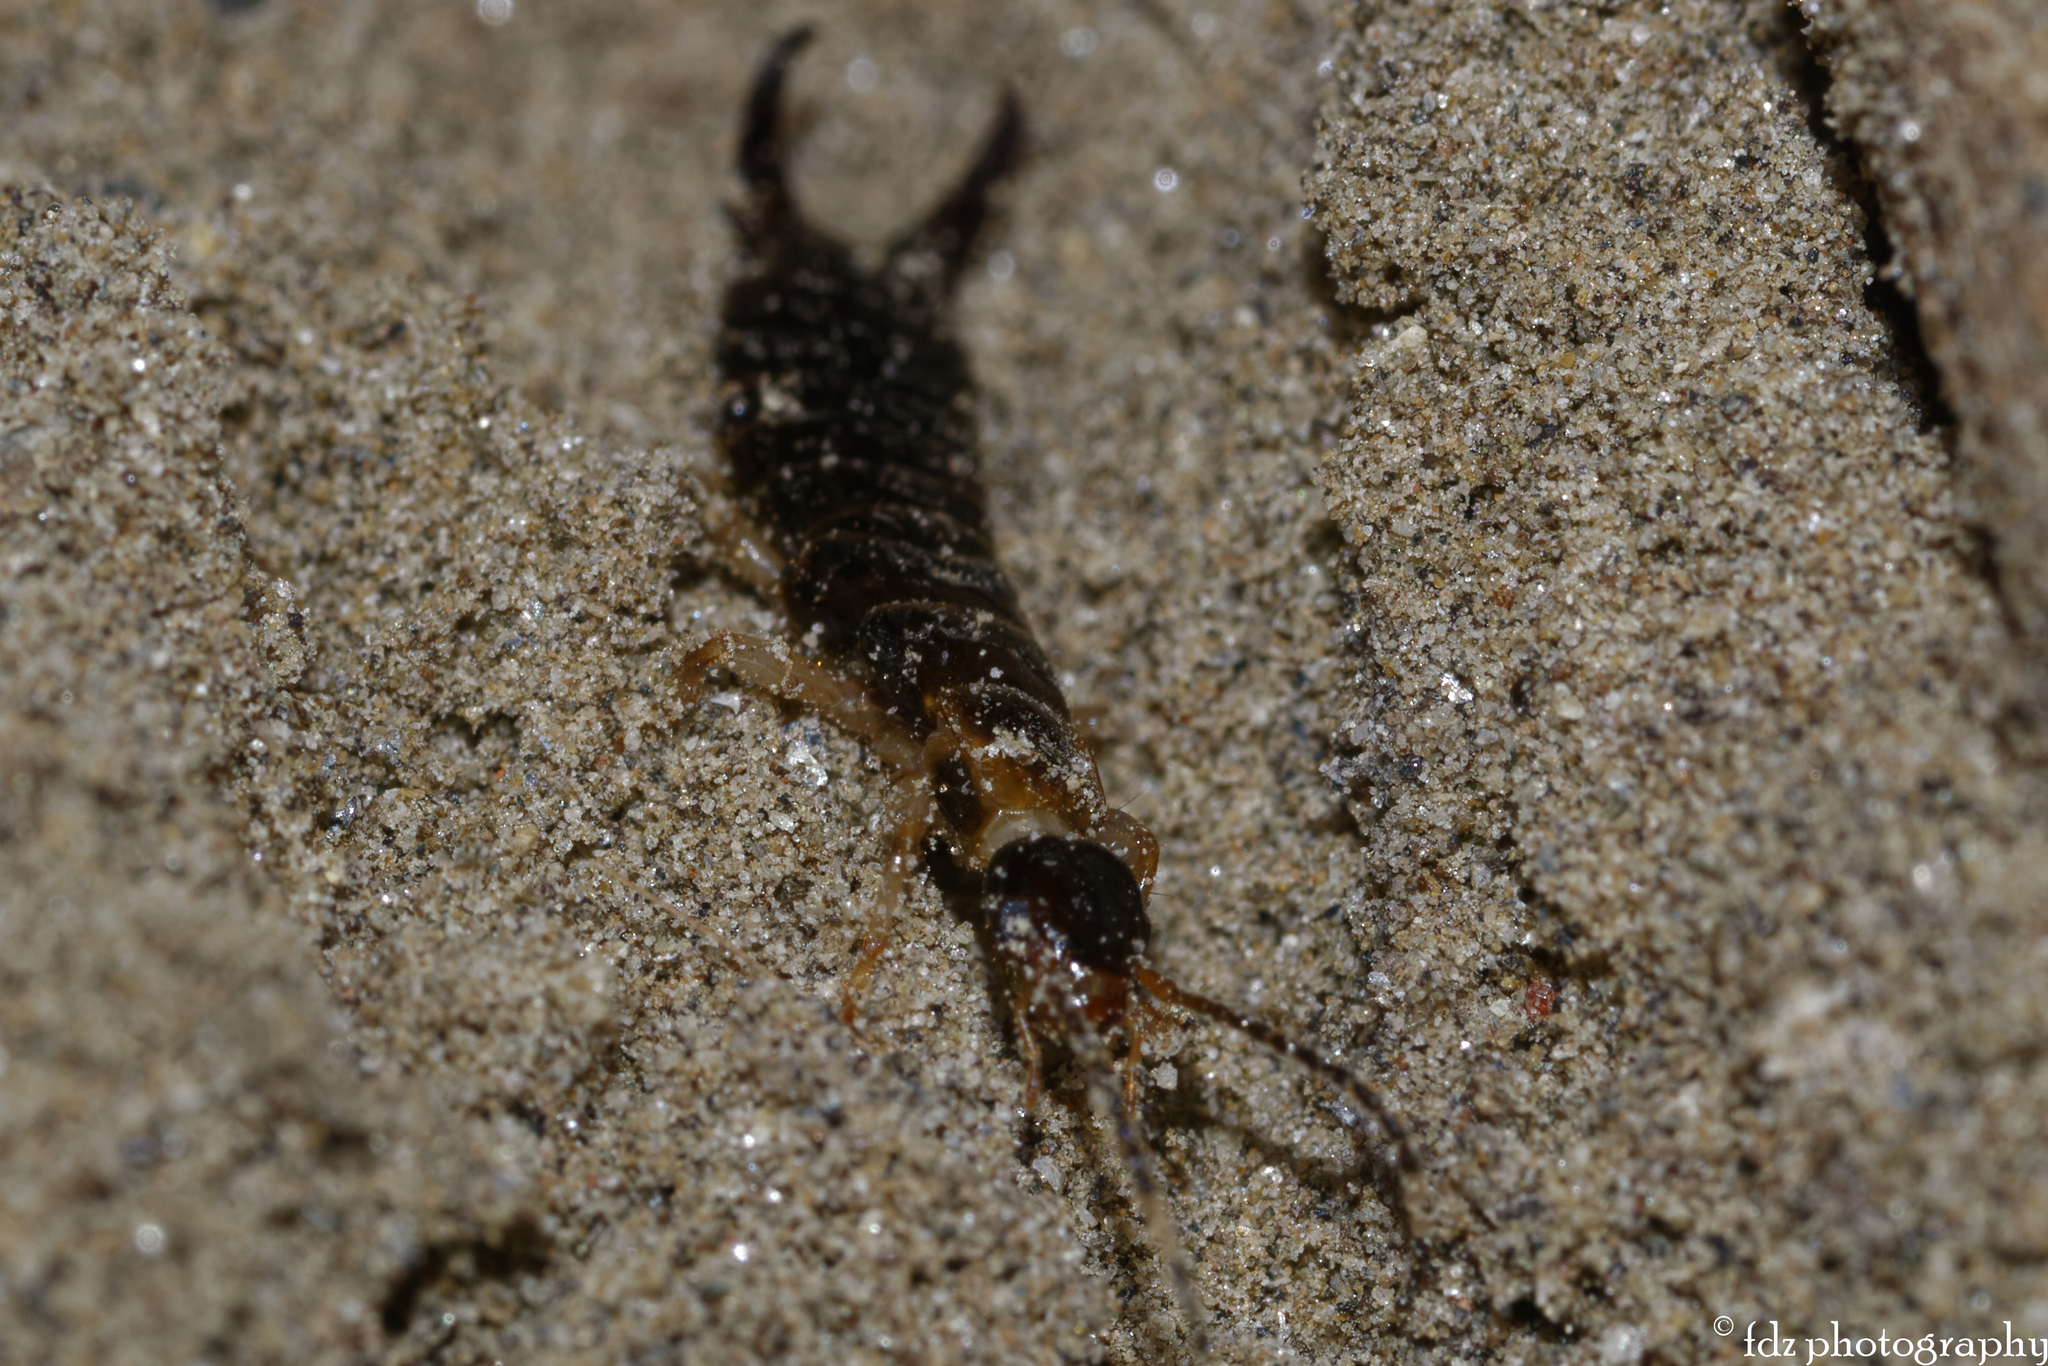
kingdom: Animalia
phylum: Arthropoda
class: Insecta
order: Dermaptera
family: Anisolabididae
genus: Anisolabis
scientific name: Anisolabis maritima
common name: Maritime earwig
